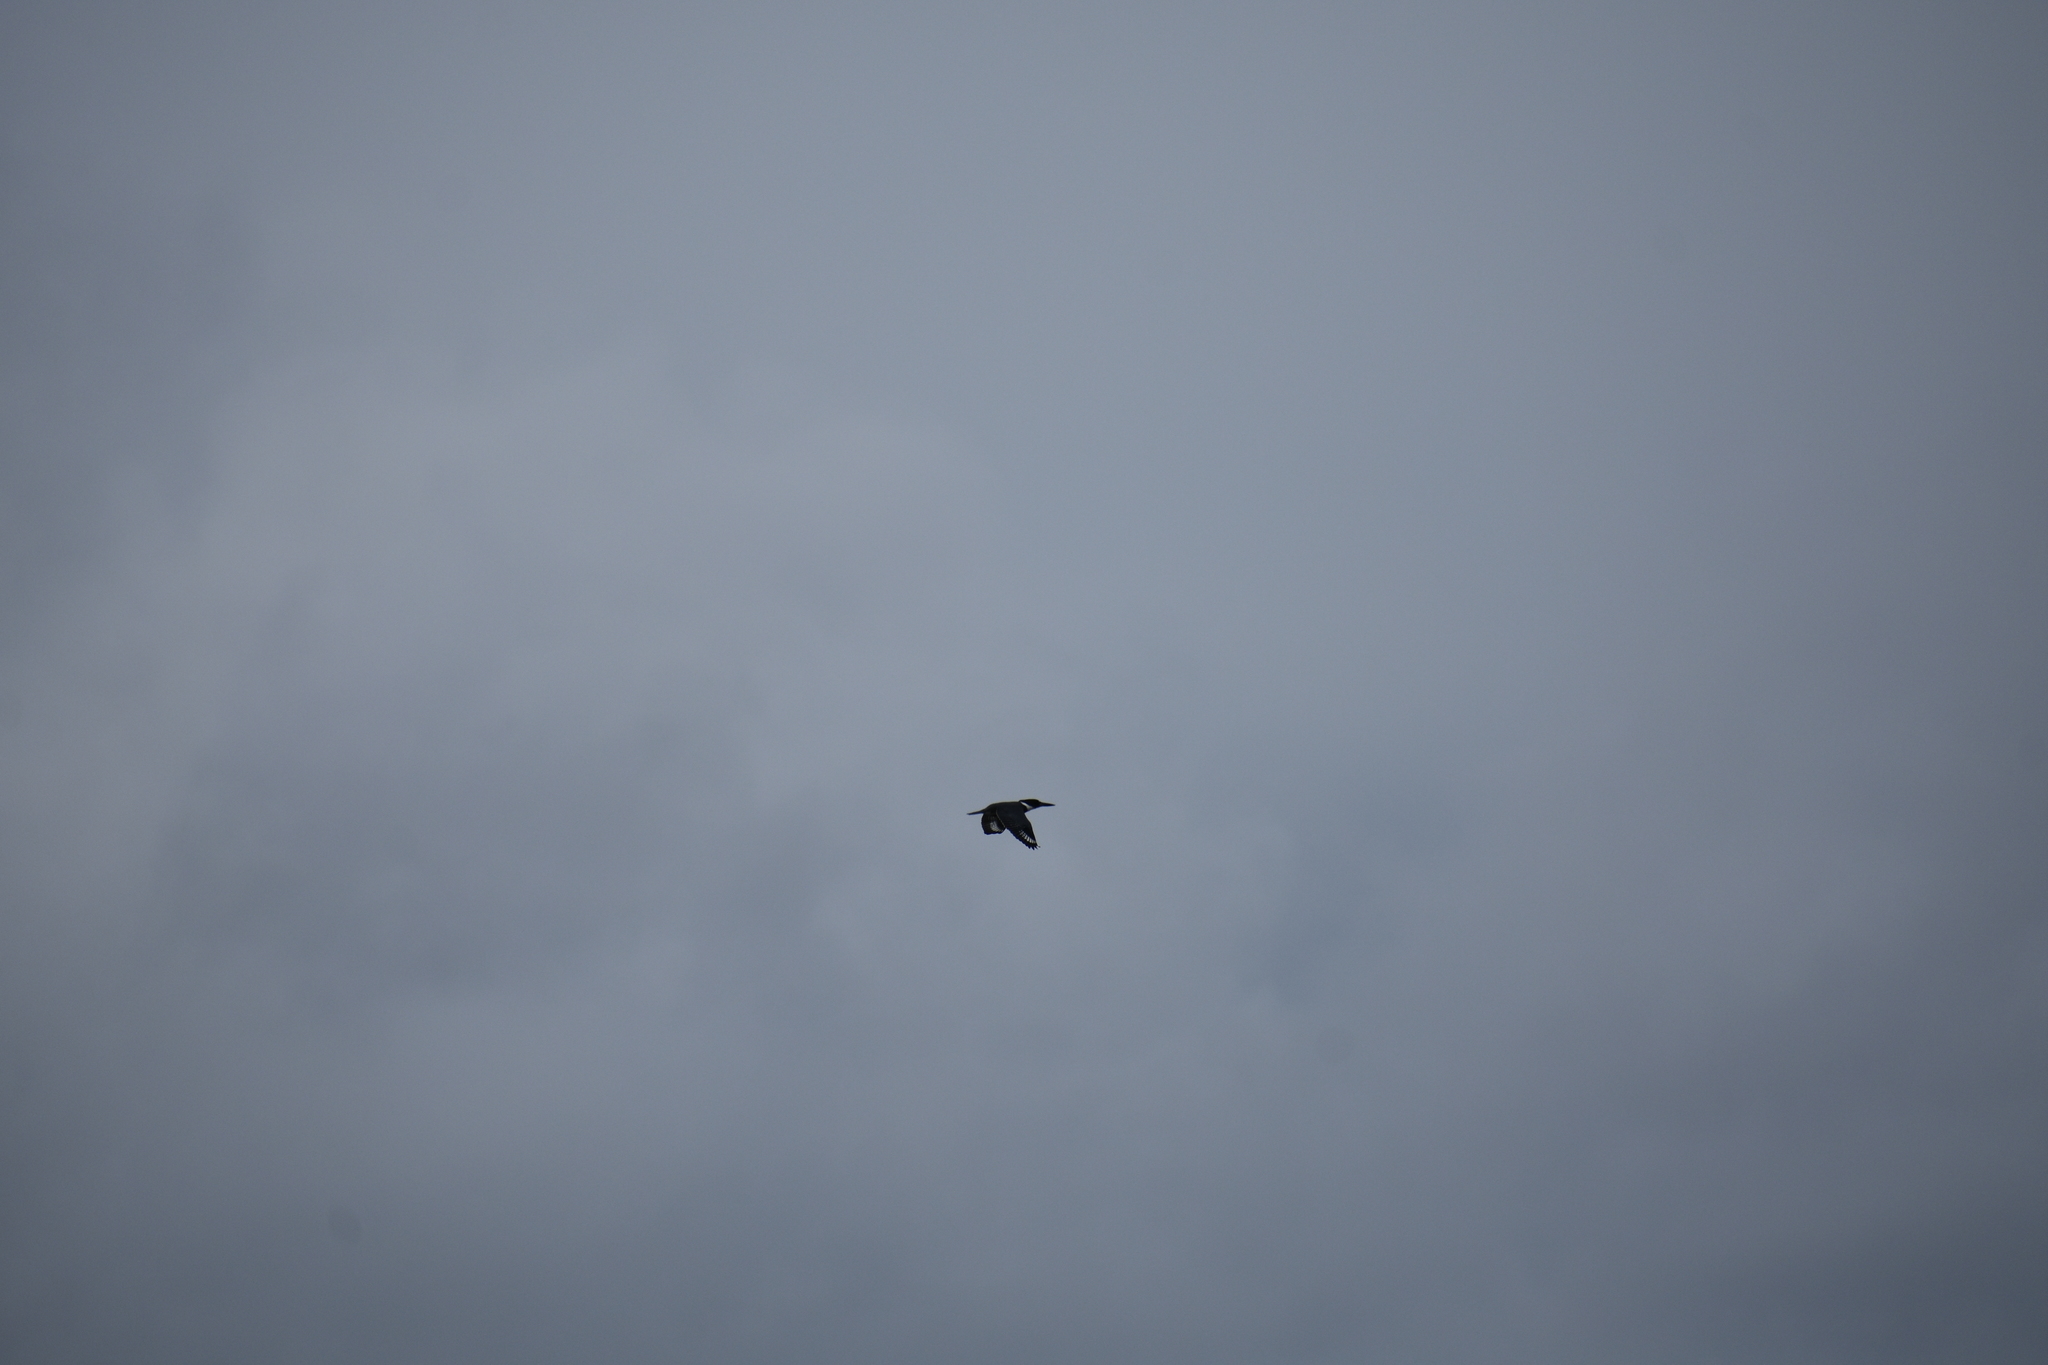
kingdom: Animalia
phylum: Chordata
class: Aves
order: Coraciiformes
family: Alcedinidae
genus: Megaceryle
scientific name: Megaceryle alcyon
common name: Belted kingfisher
